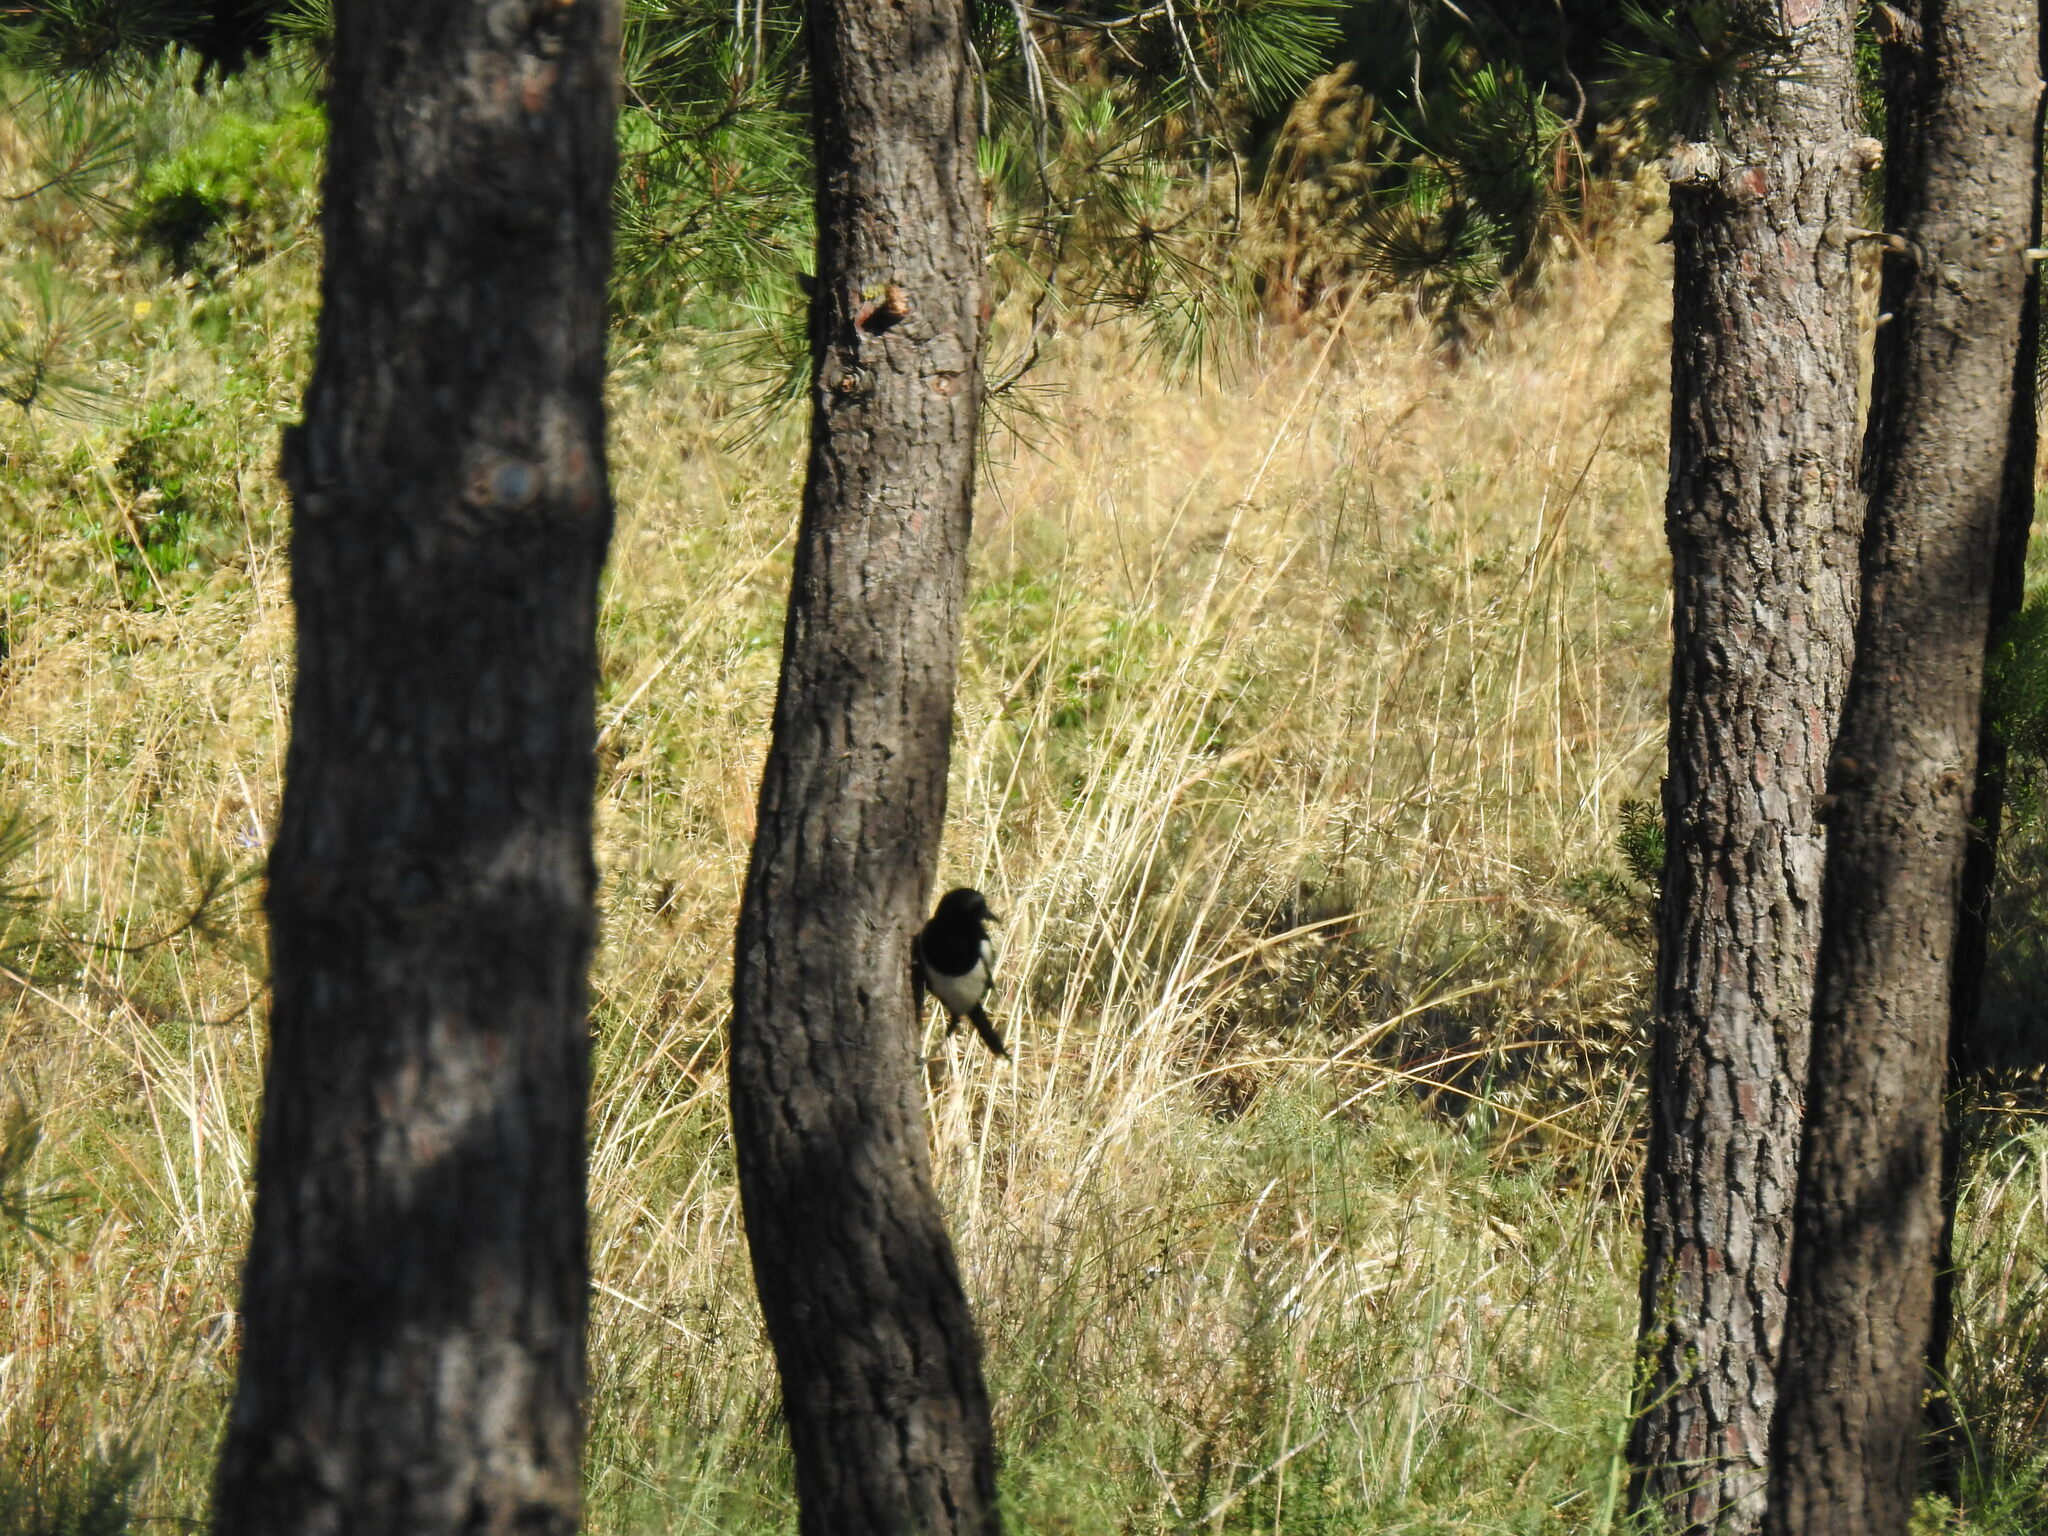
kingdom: Animalia
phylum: Chordata
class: Aves
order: Passeriformes
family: Corvidae
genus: Pica
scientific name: Pica pica
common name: Eurasian magpie
